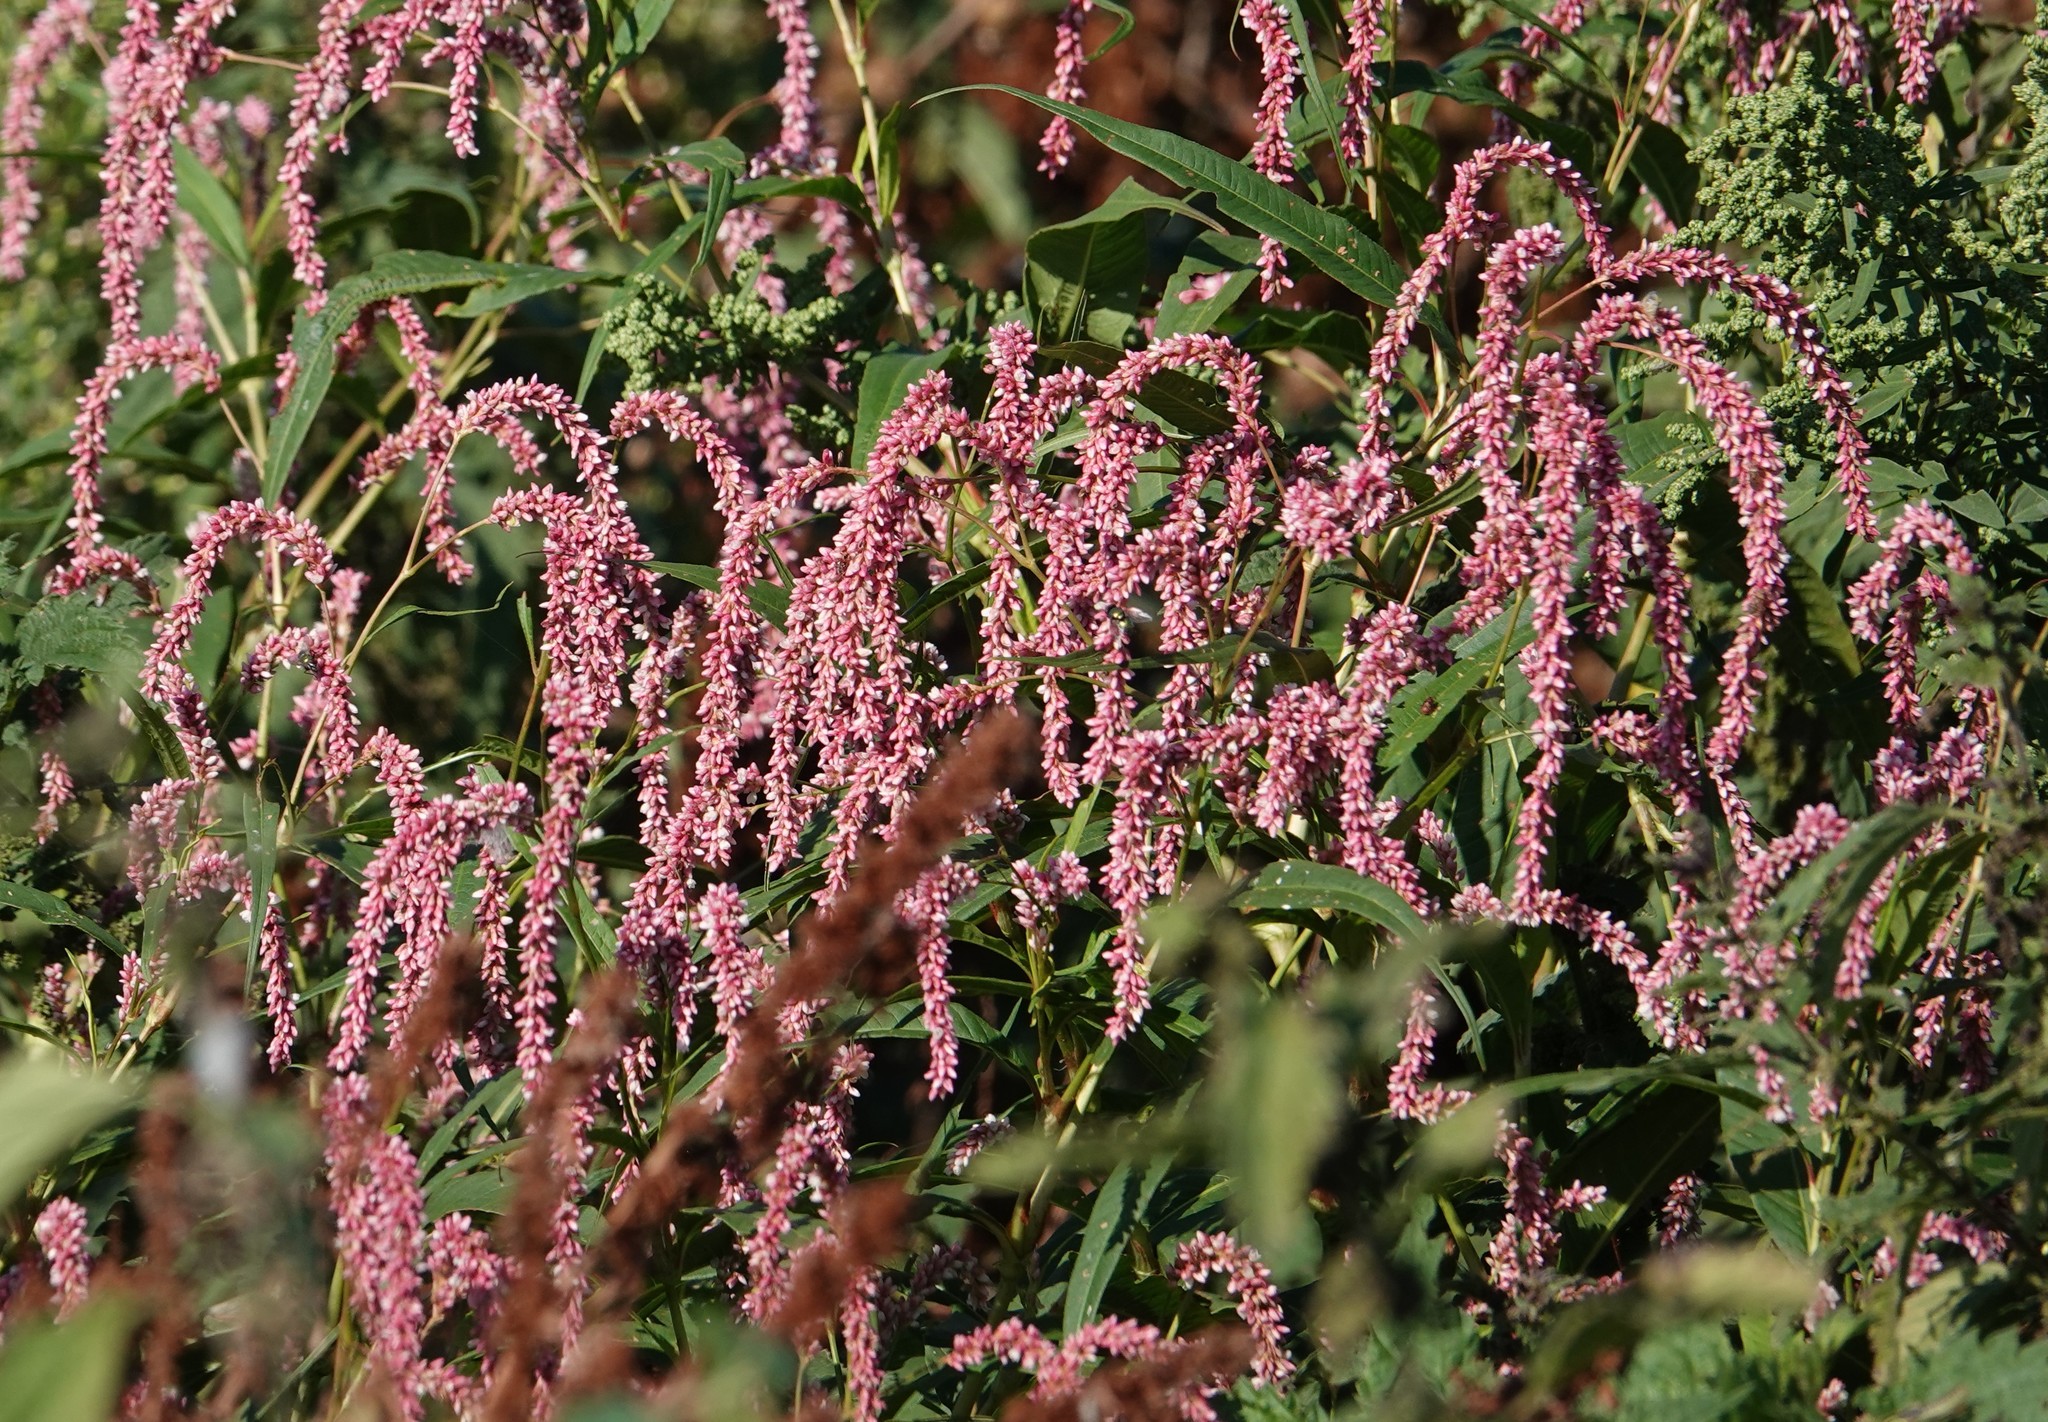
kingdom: Plantae
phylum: Tracheophyta
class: Magnoliopsida
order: Caryophyllales
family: Polygonaceae
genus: Persicaria
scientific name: Persicaria lapathifolia
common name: Curlytop knotweed
